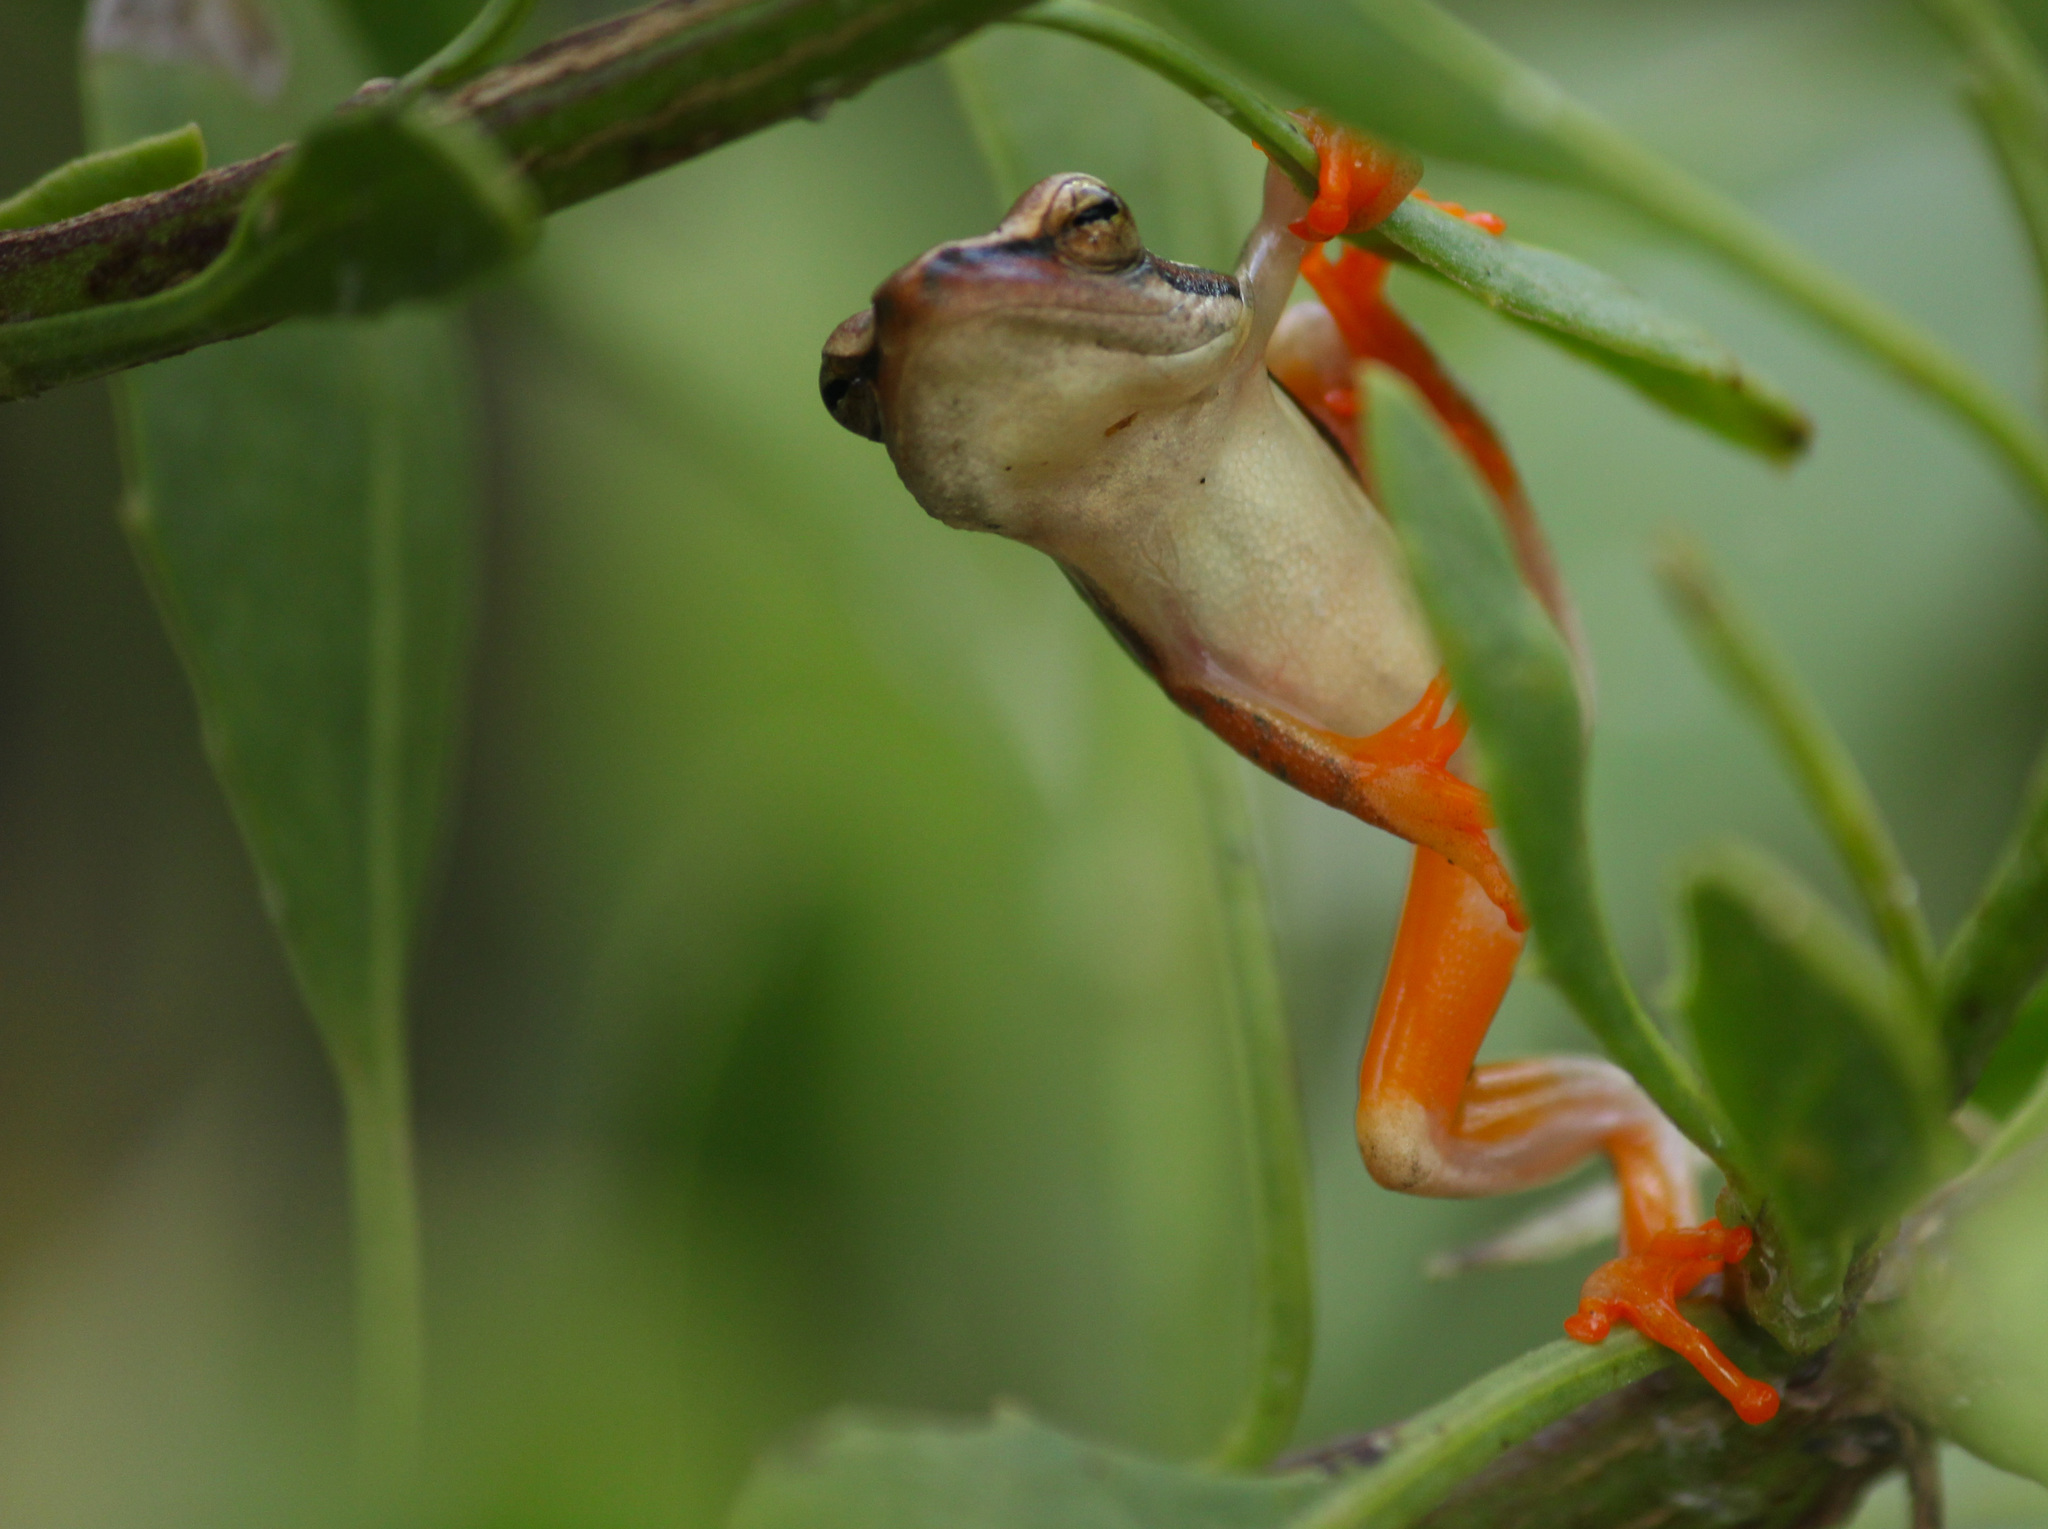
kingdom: Animalia
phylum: Chordata
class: Amphibia
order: Anura
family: Hyperoliidae
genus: Hyperolius
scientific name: Hyperolius horstockii
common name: Arum lily frog
